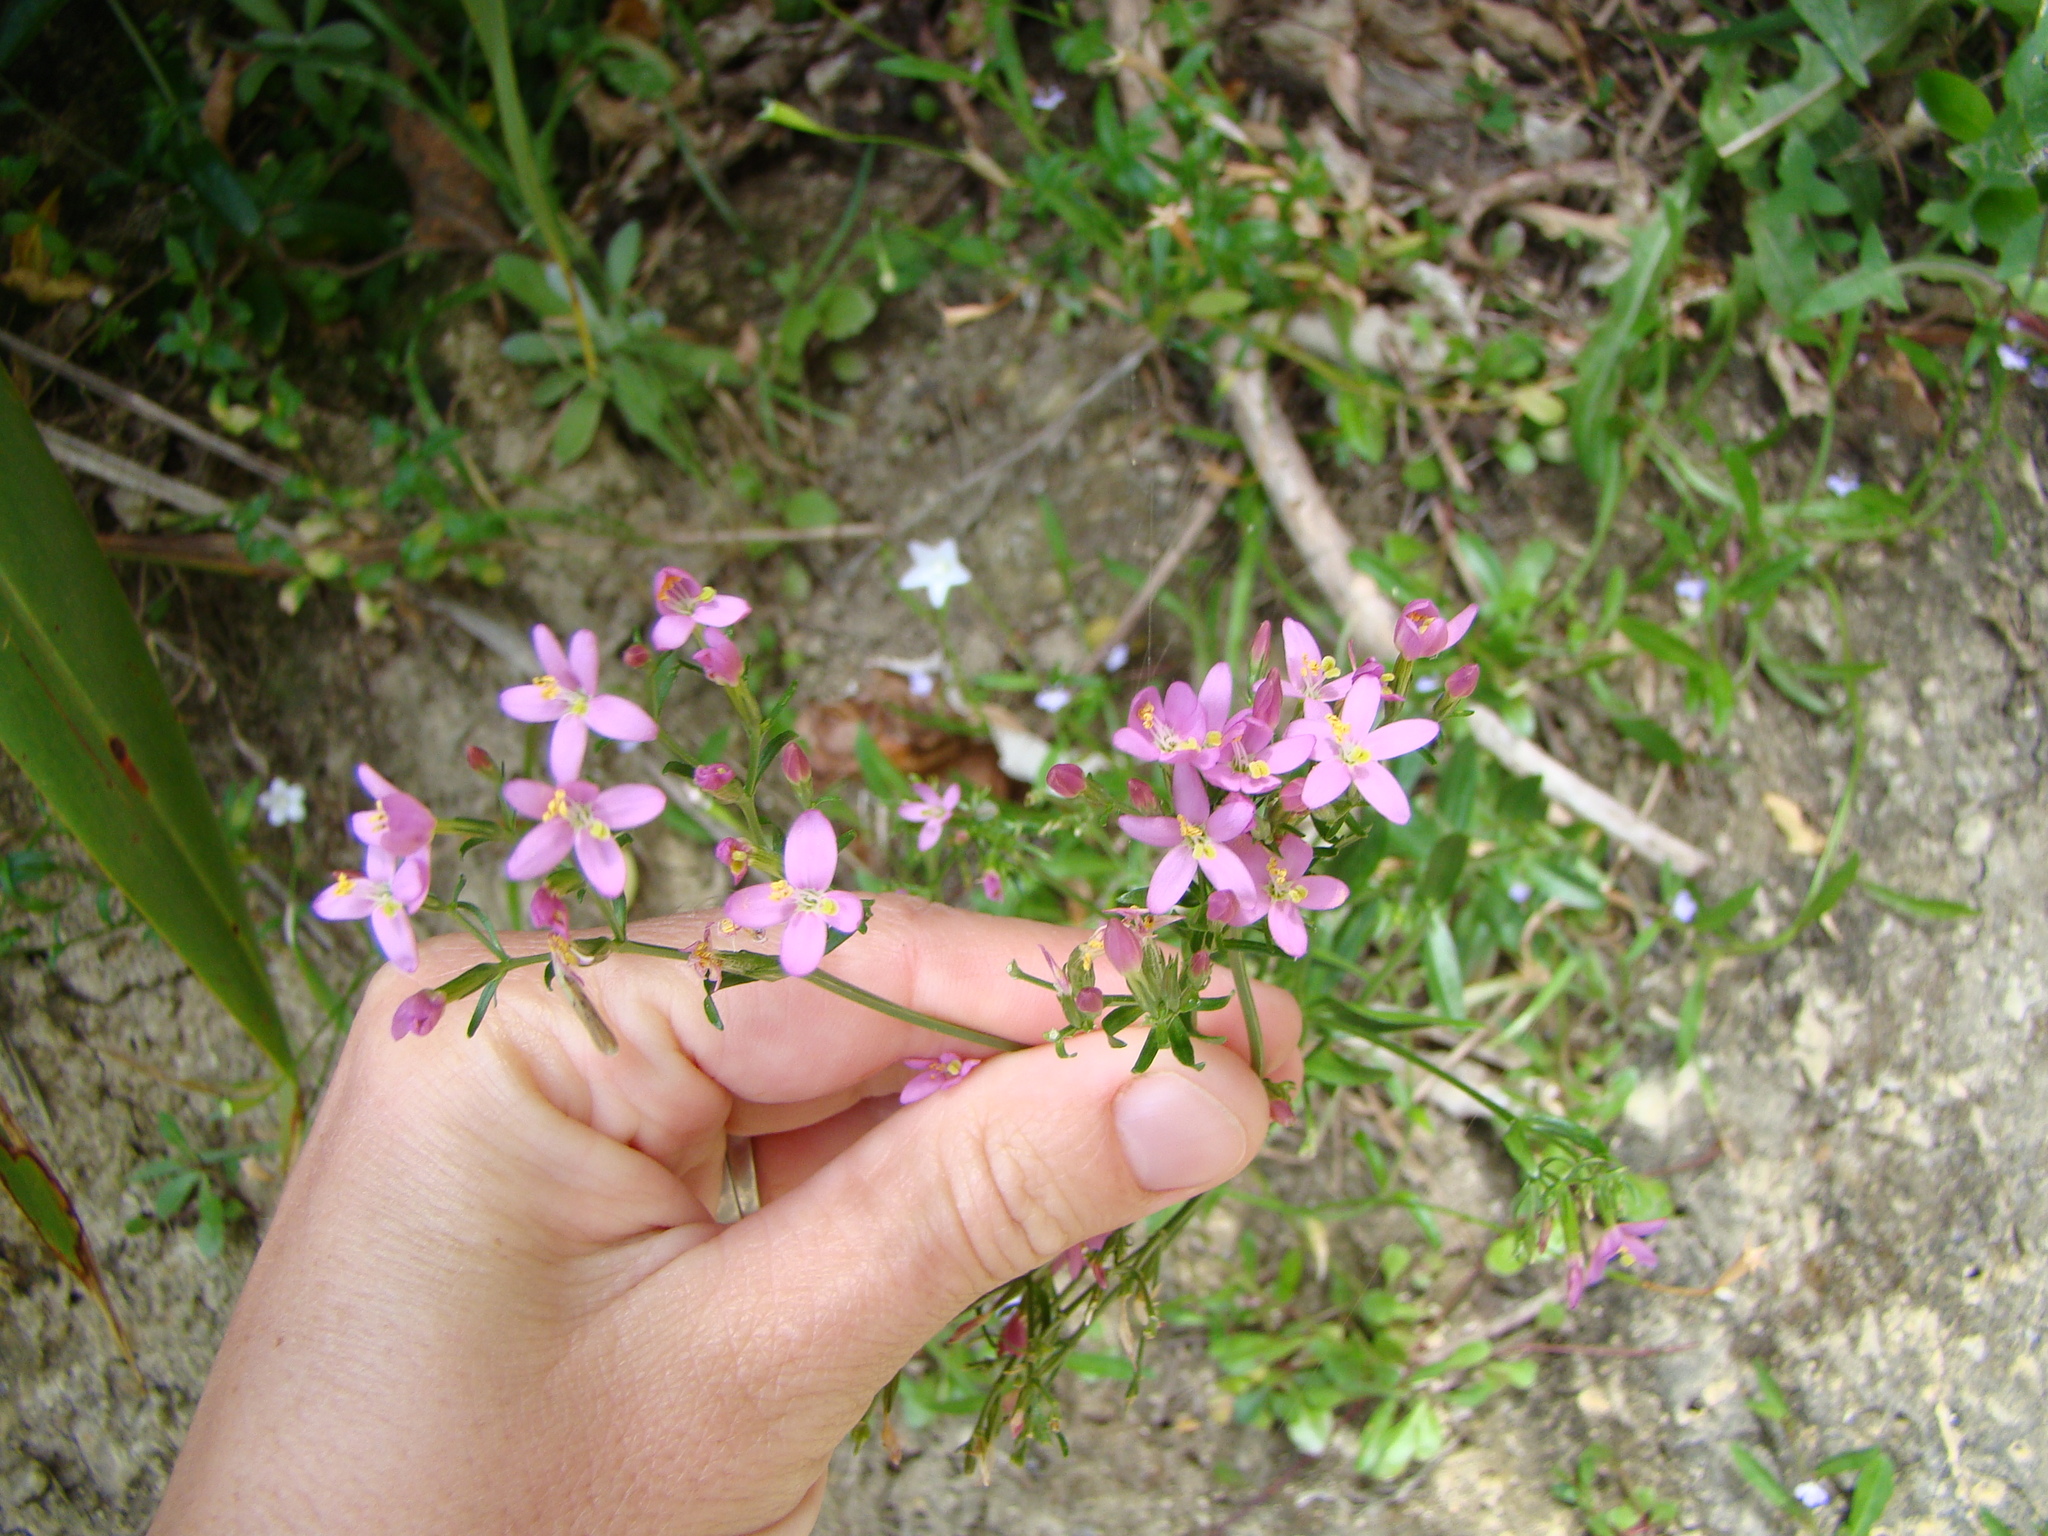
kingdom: Plantae
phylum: Tracheophyta
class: Magnoliopsida
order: Gentianales
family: Gentianaceae
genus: Centaurium
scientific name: Centaurium erythraea
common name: Common centaury
